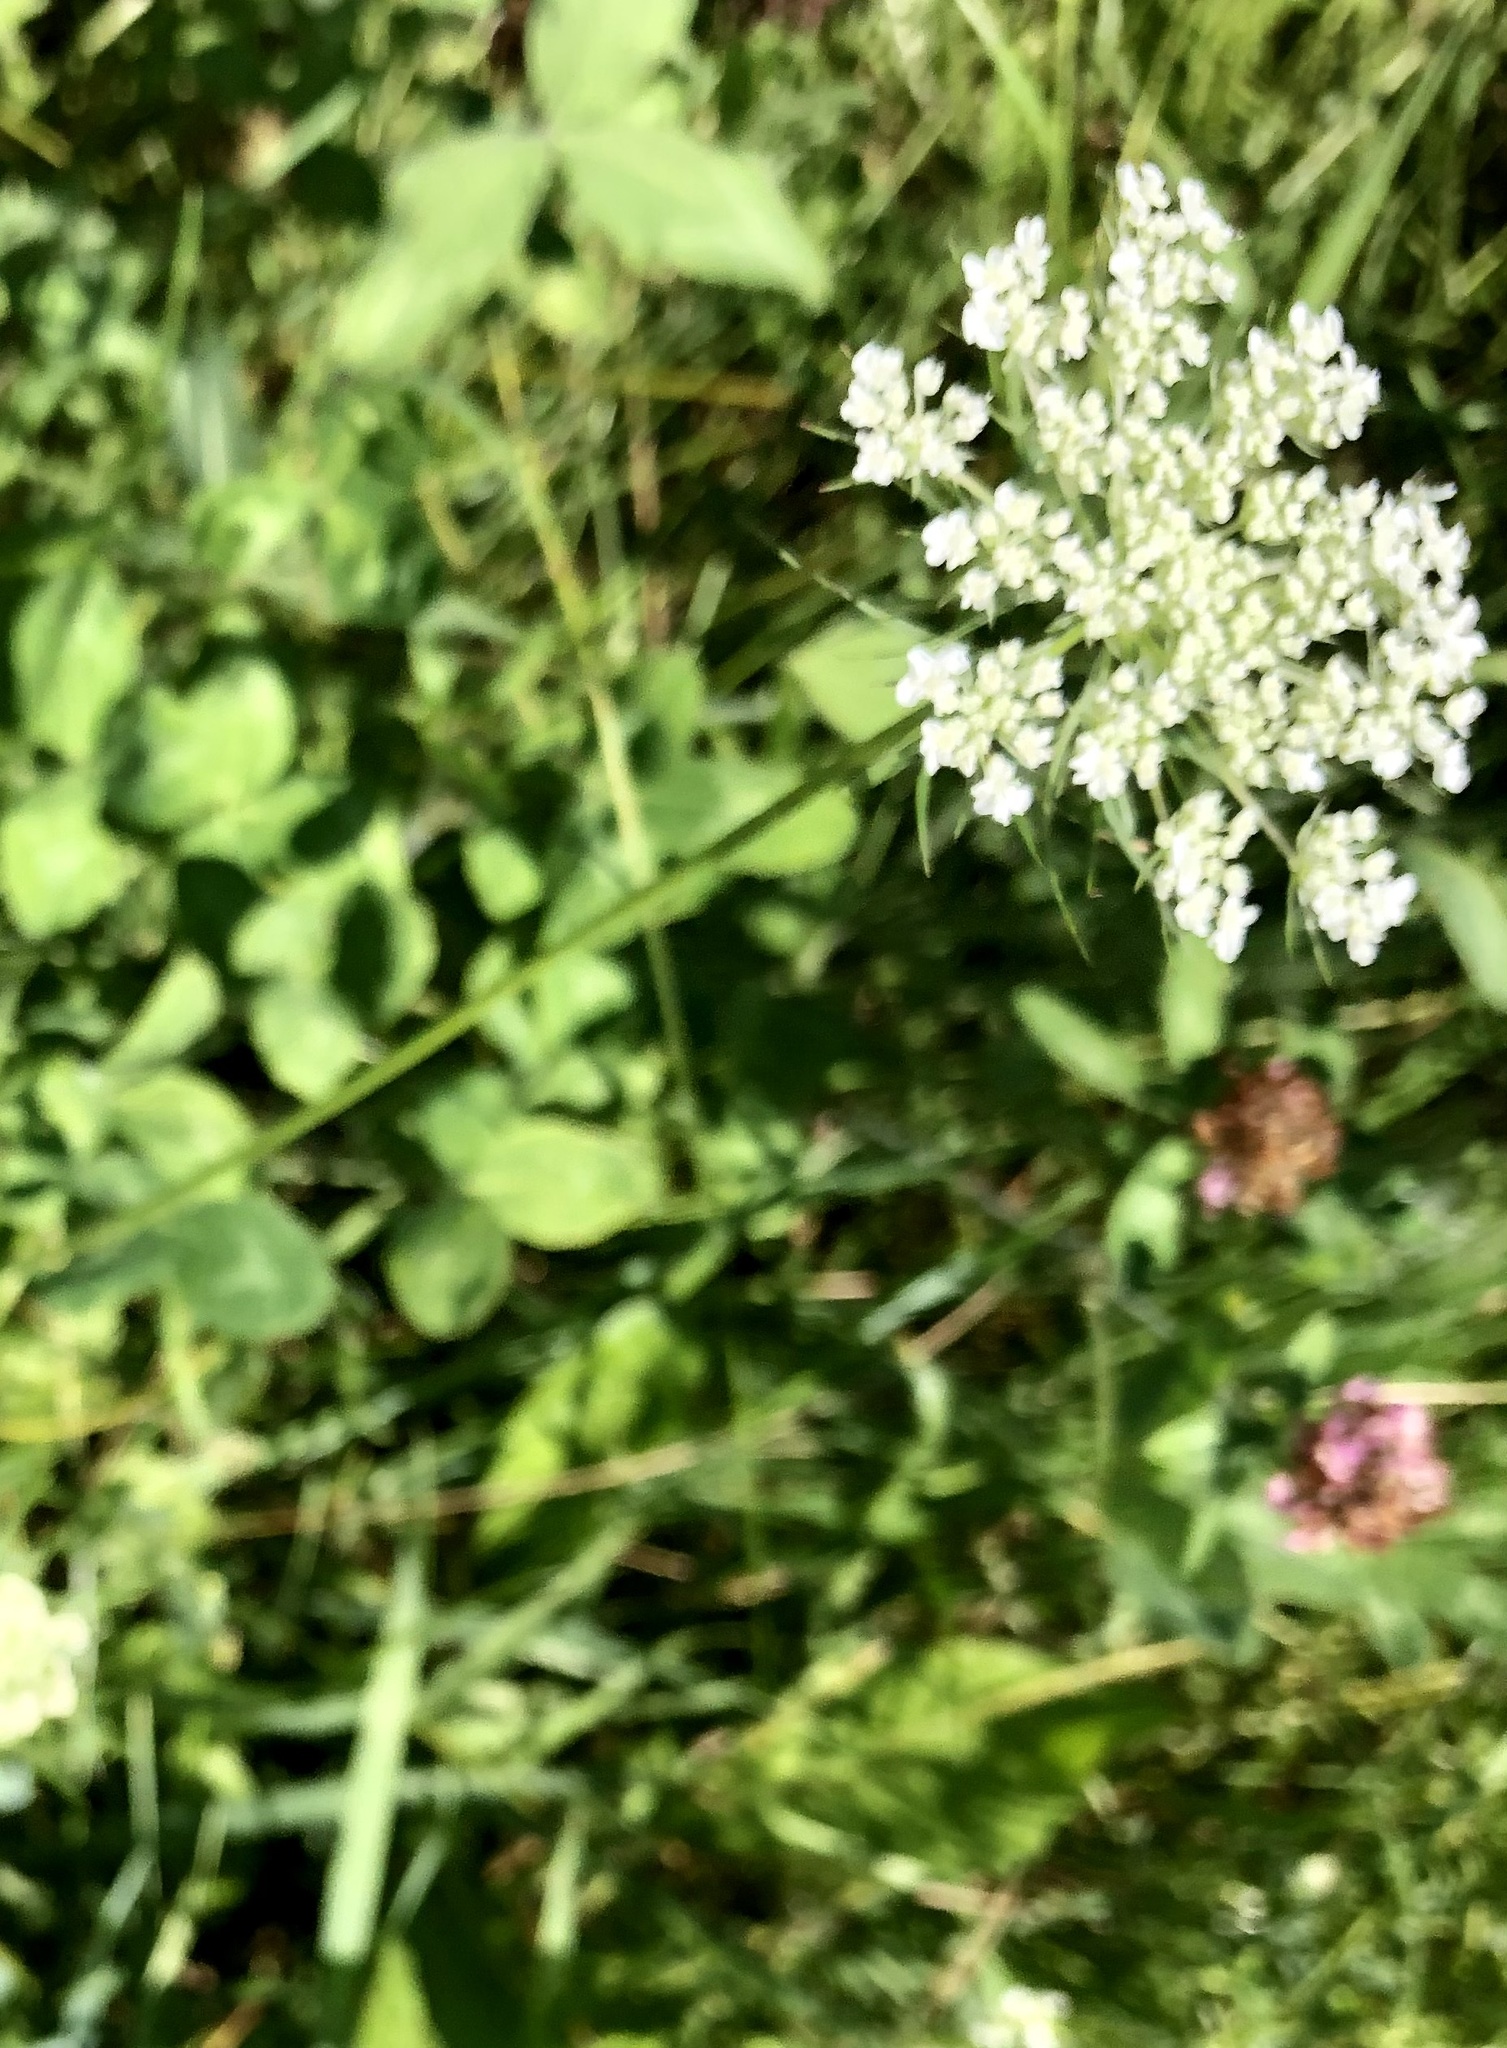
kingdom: Plantae
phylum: Tracheophyta
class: Magnoliopsida
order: Apiales
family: Apiaceae
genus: Daucus
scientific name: Daucus carota
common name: Wild carrot
